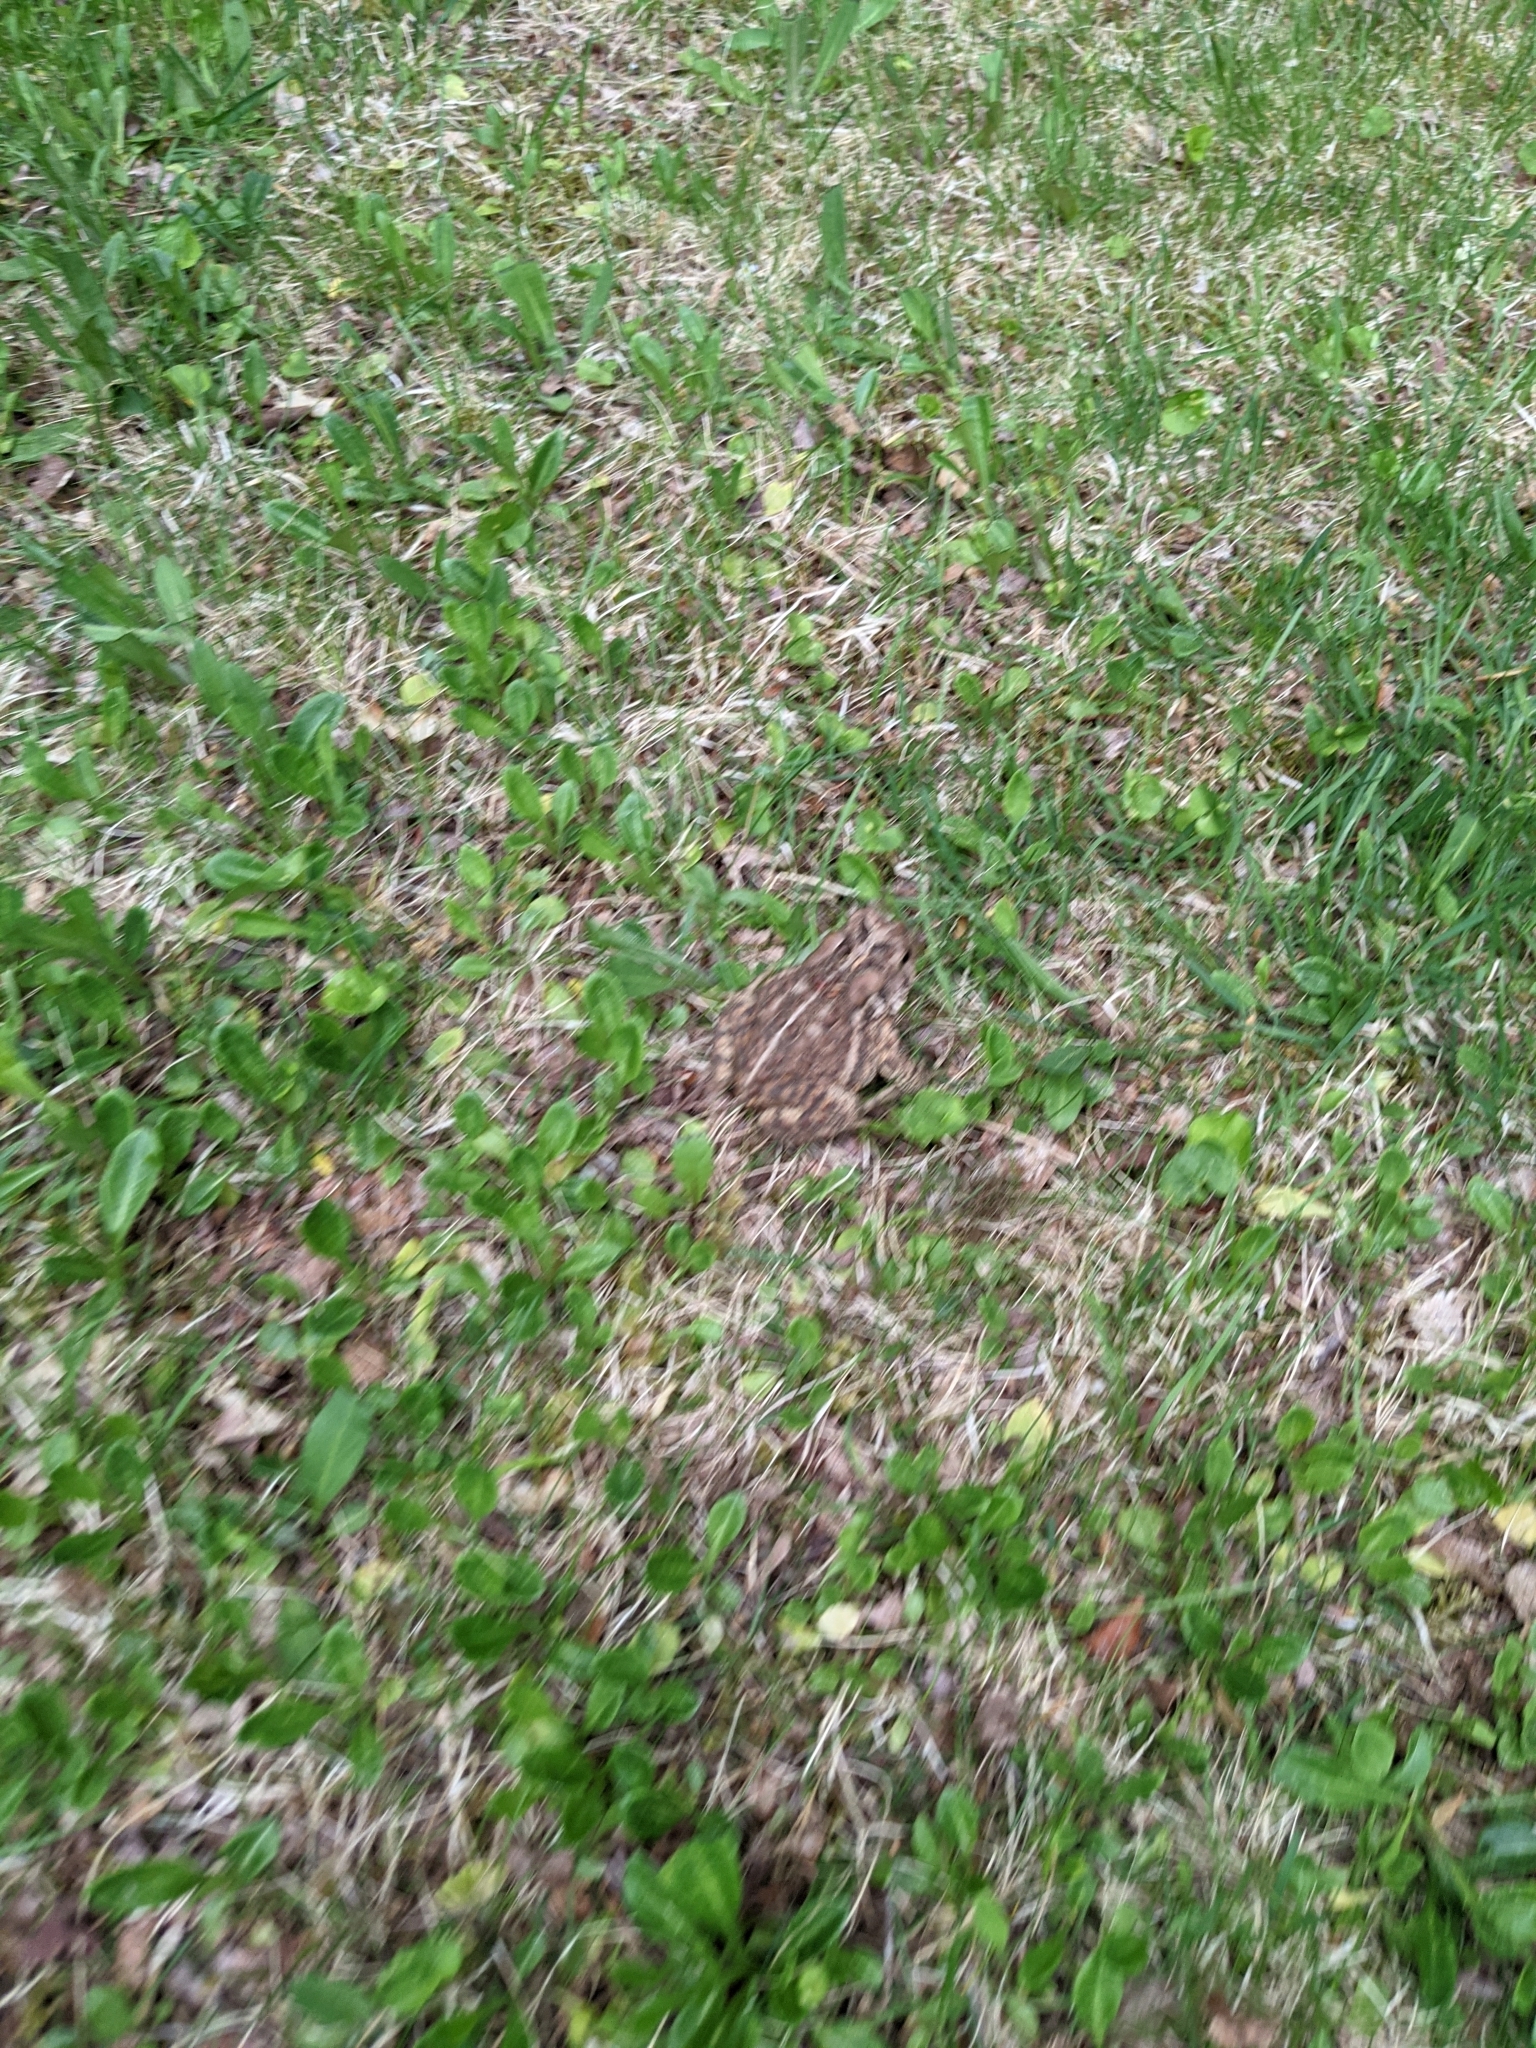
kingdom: Animalia
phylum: Chordata
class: Amphibia
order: Anura
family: Bufonidae
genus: Anaxyrus
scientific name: Anaxyrus americanus
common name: American toad
